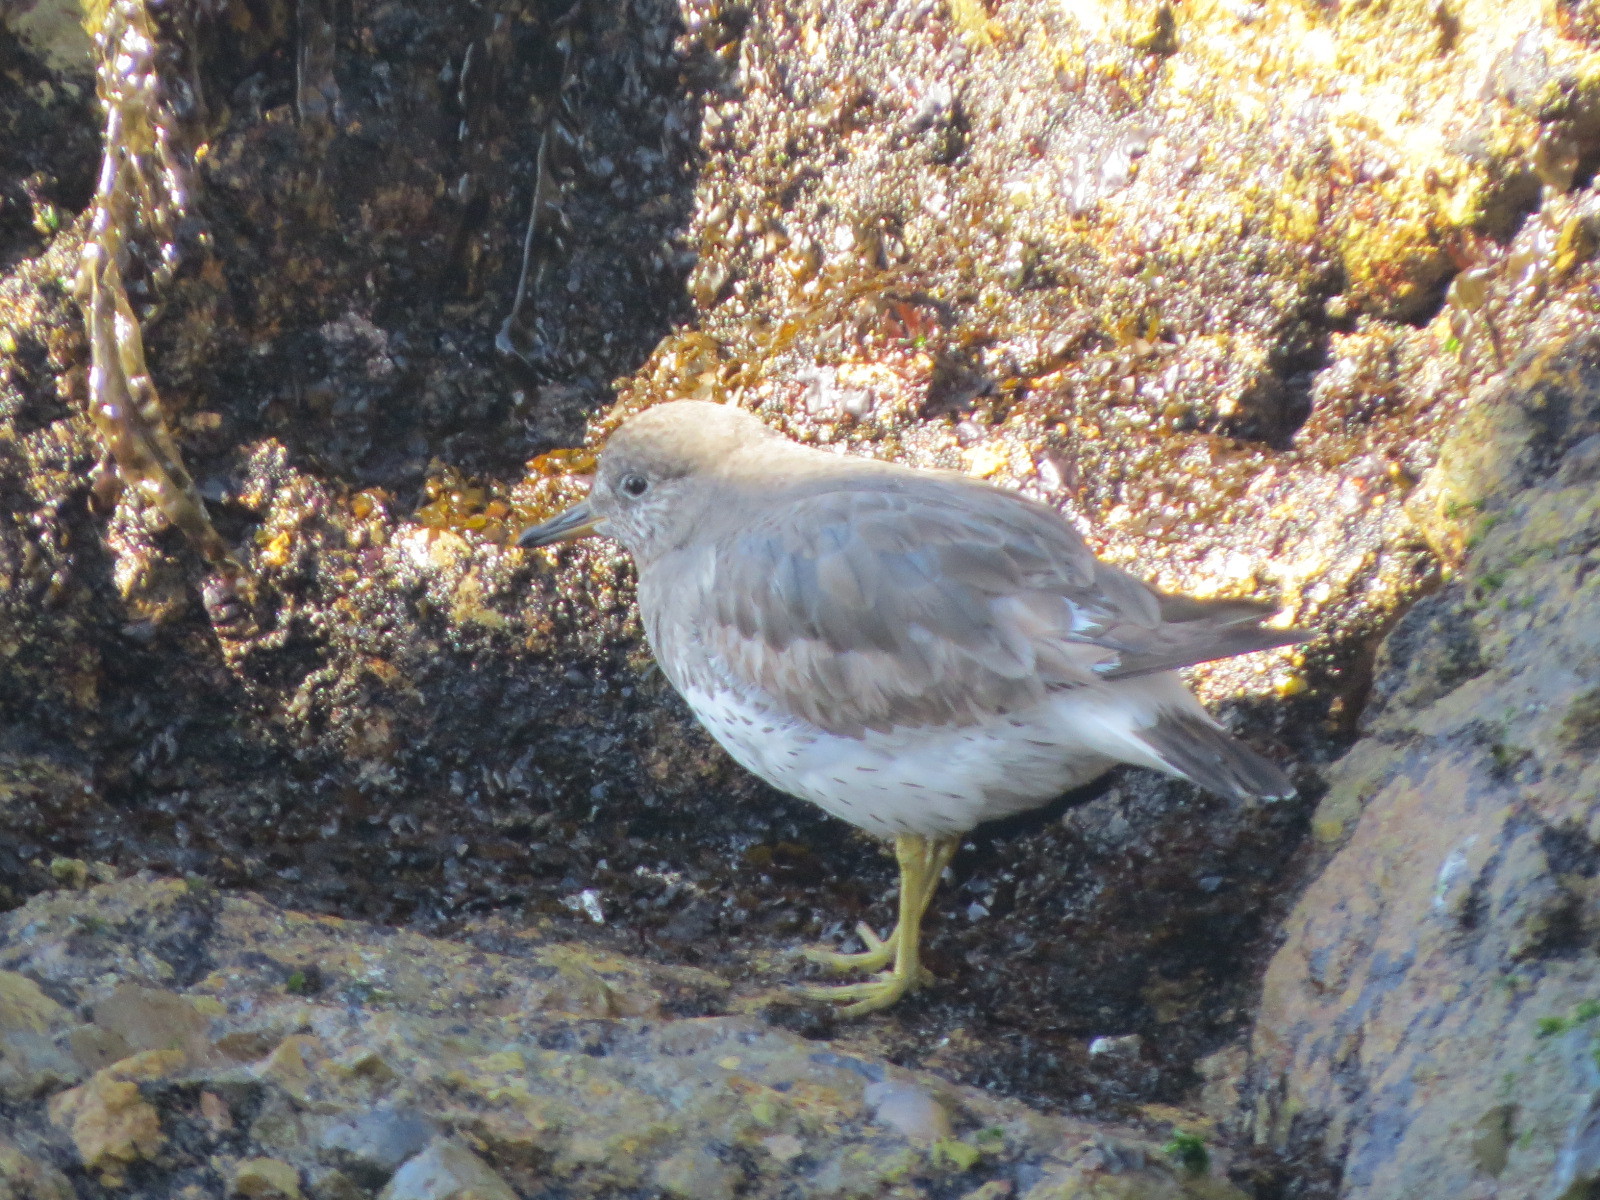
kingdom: Animalia
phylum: Chordata
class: Aves
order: Charadriiformes
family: Scolopacidae
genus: Calidris
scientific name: Calidris virgata
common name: Surfbird
